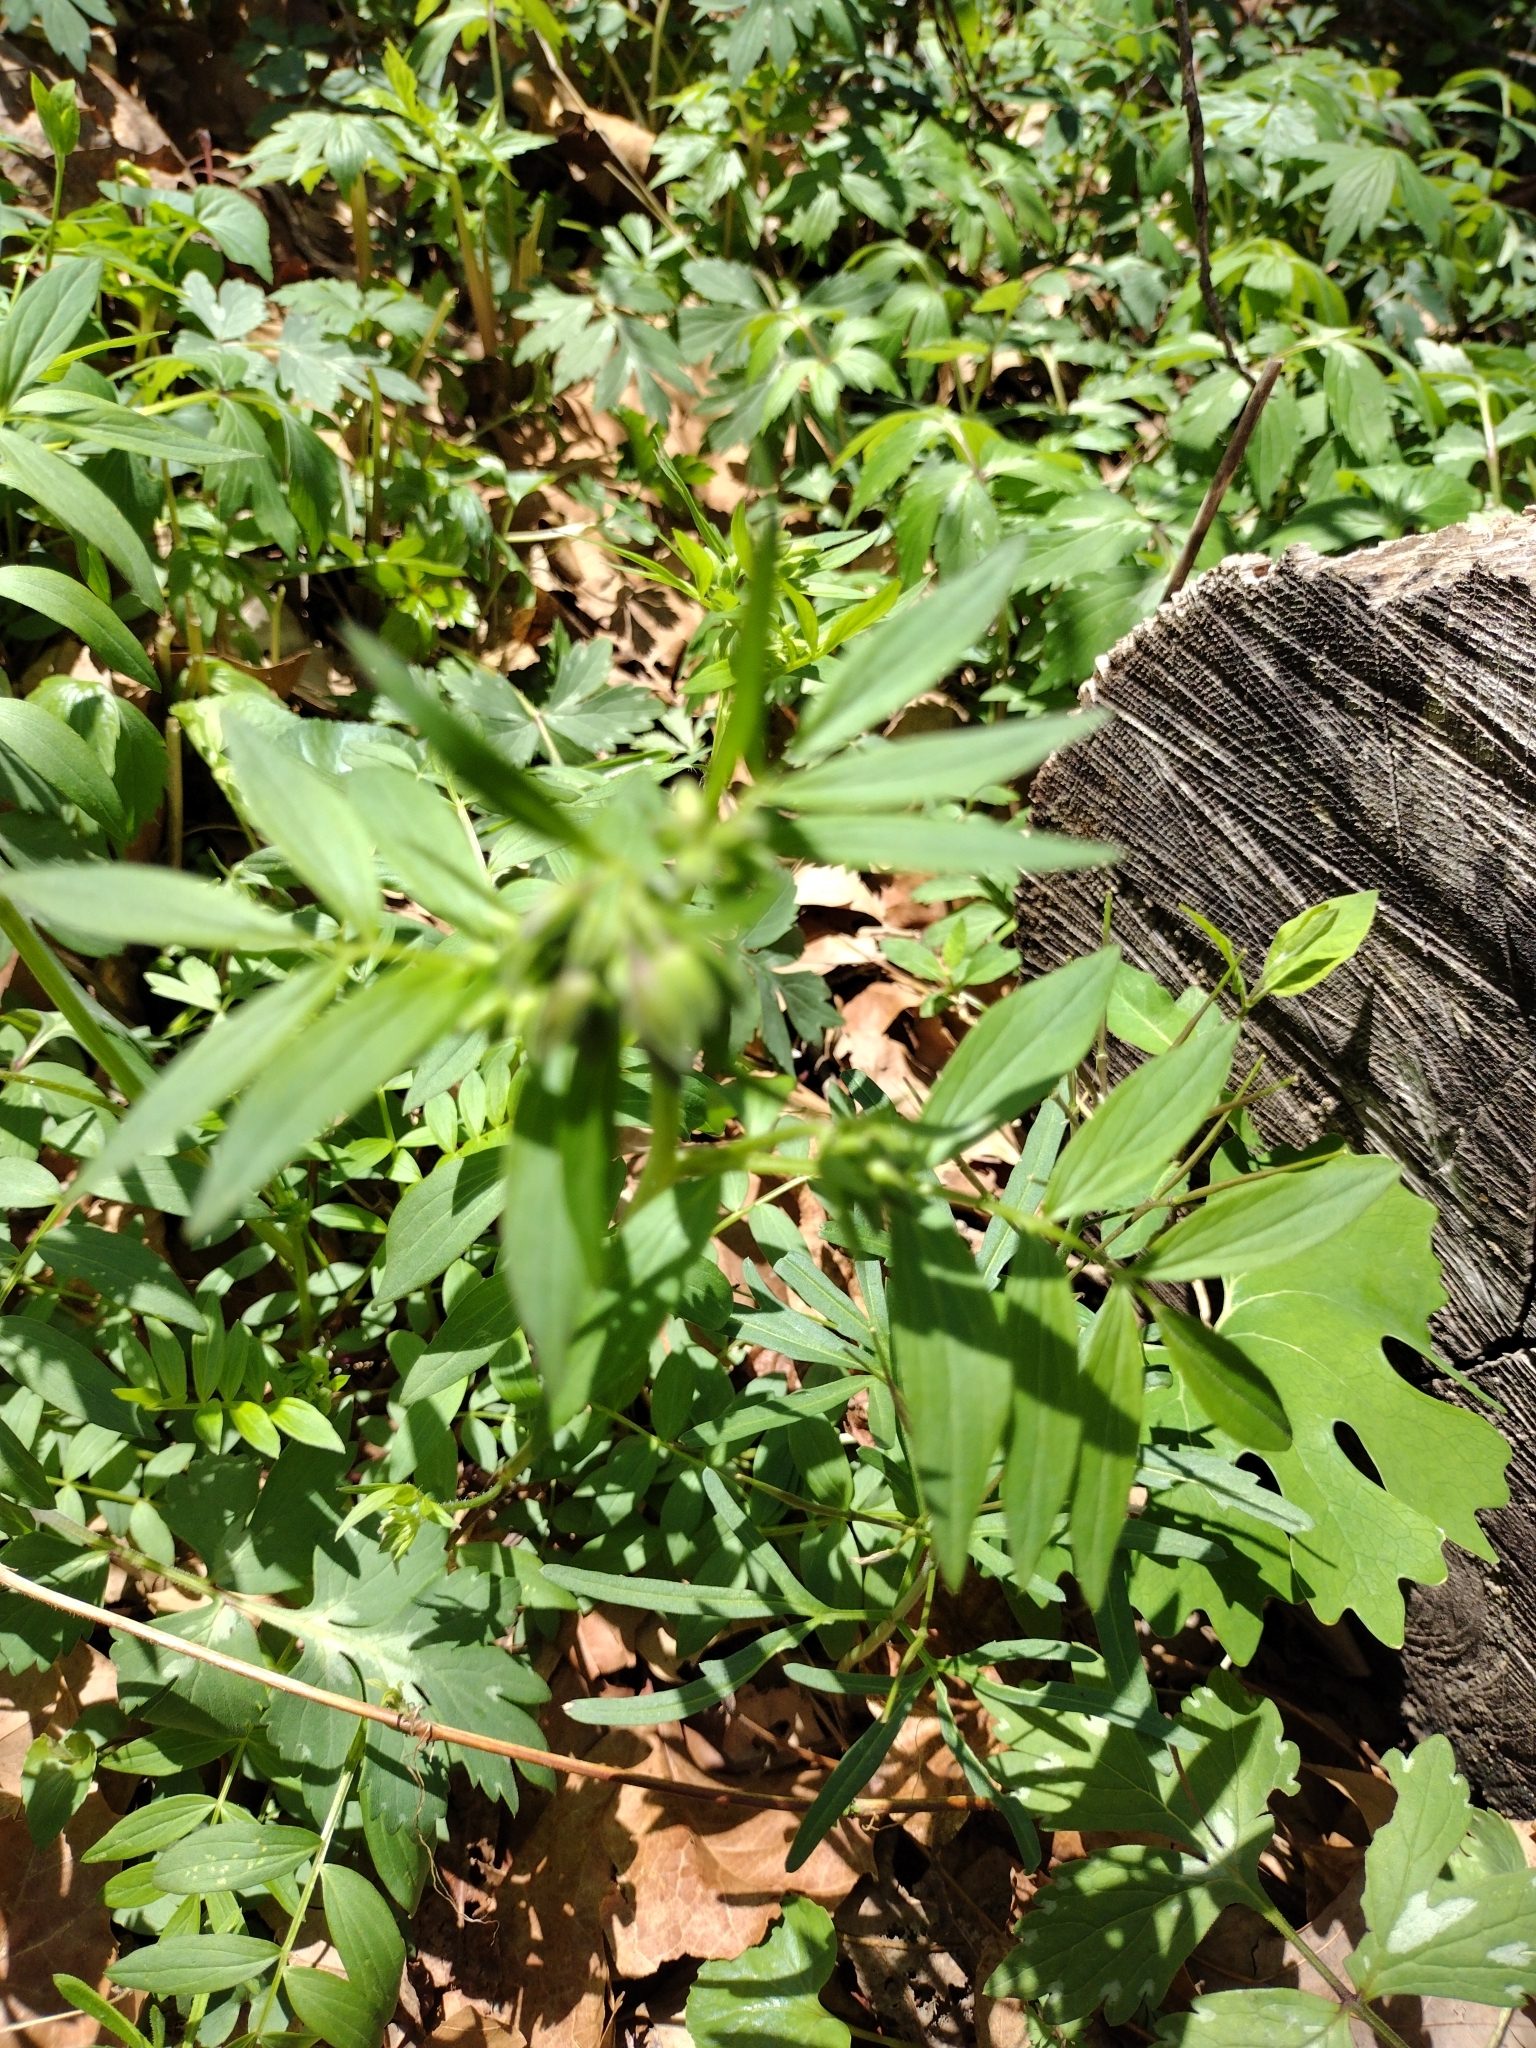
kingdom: Plantae
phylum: Tracheophyta
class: Magnoliopsida
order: Ericales
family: Polemoniaceae
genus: Polemonium
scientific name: Polemonium reptans
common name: Creeping jacob's-ladder
